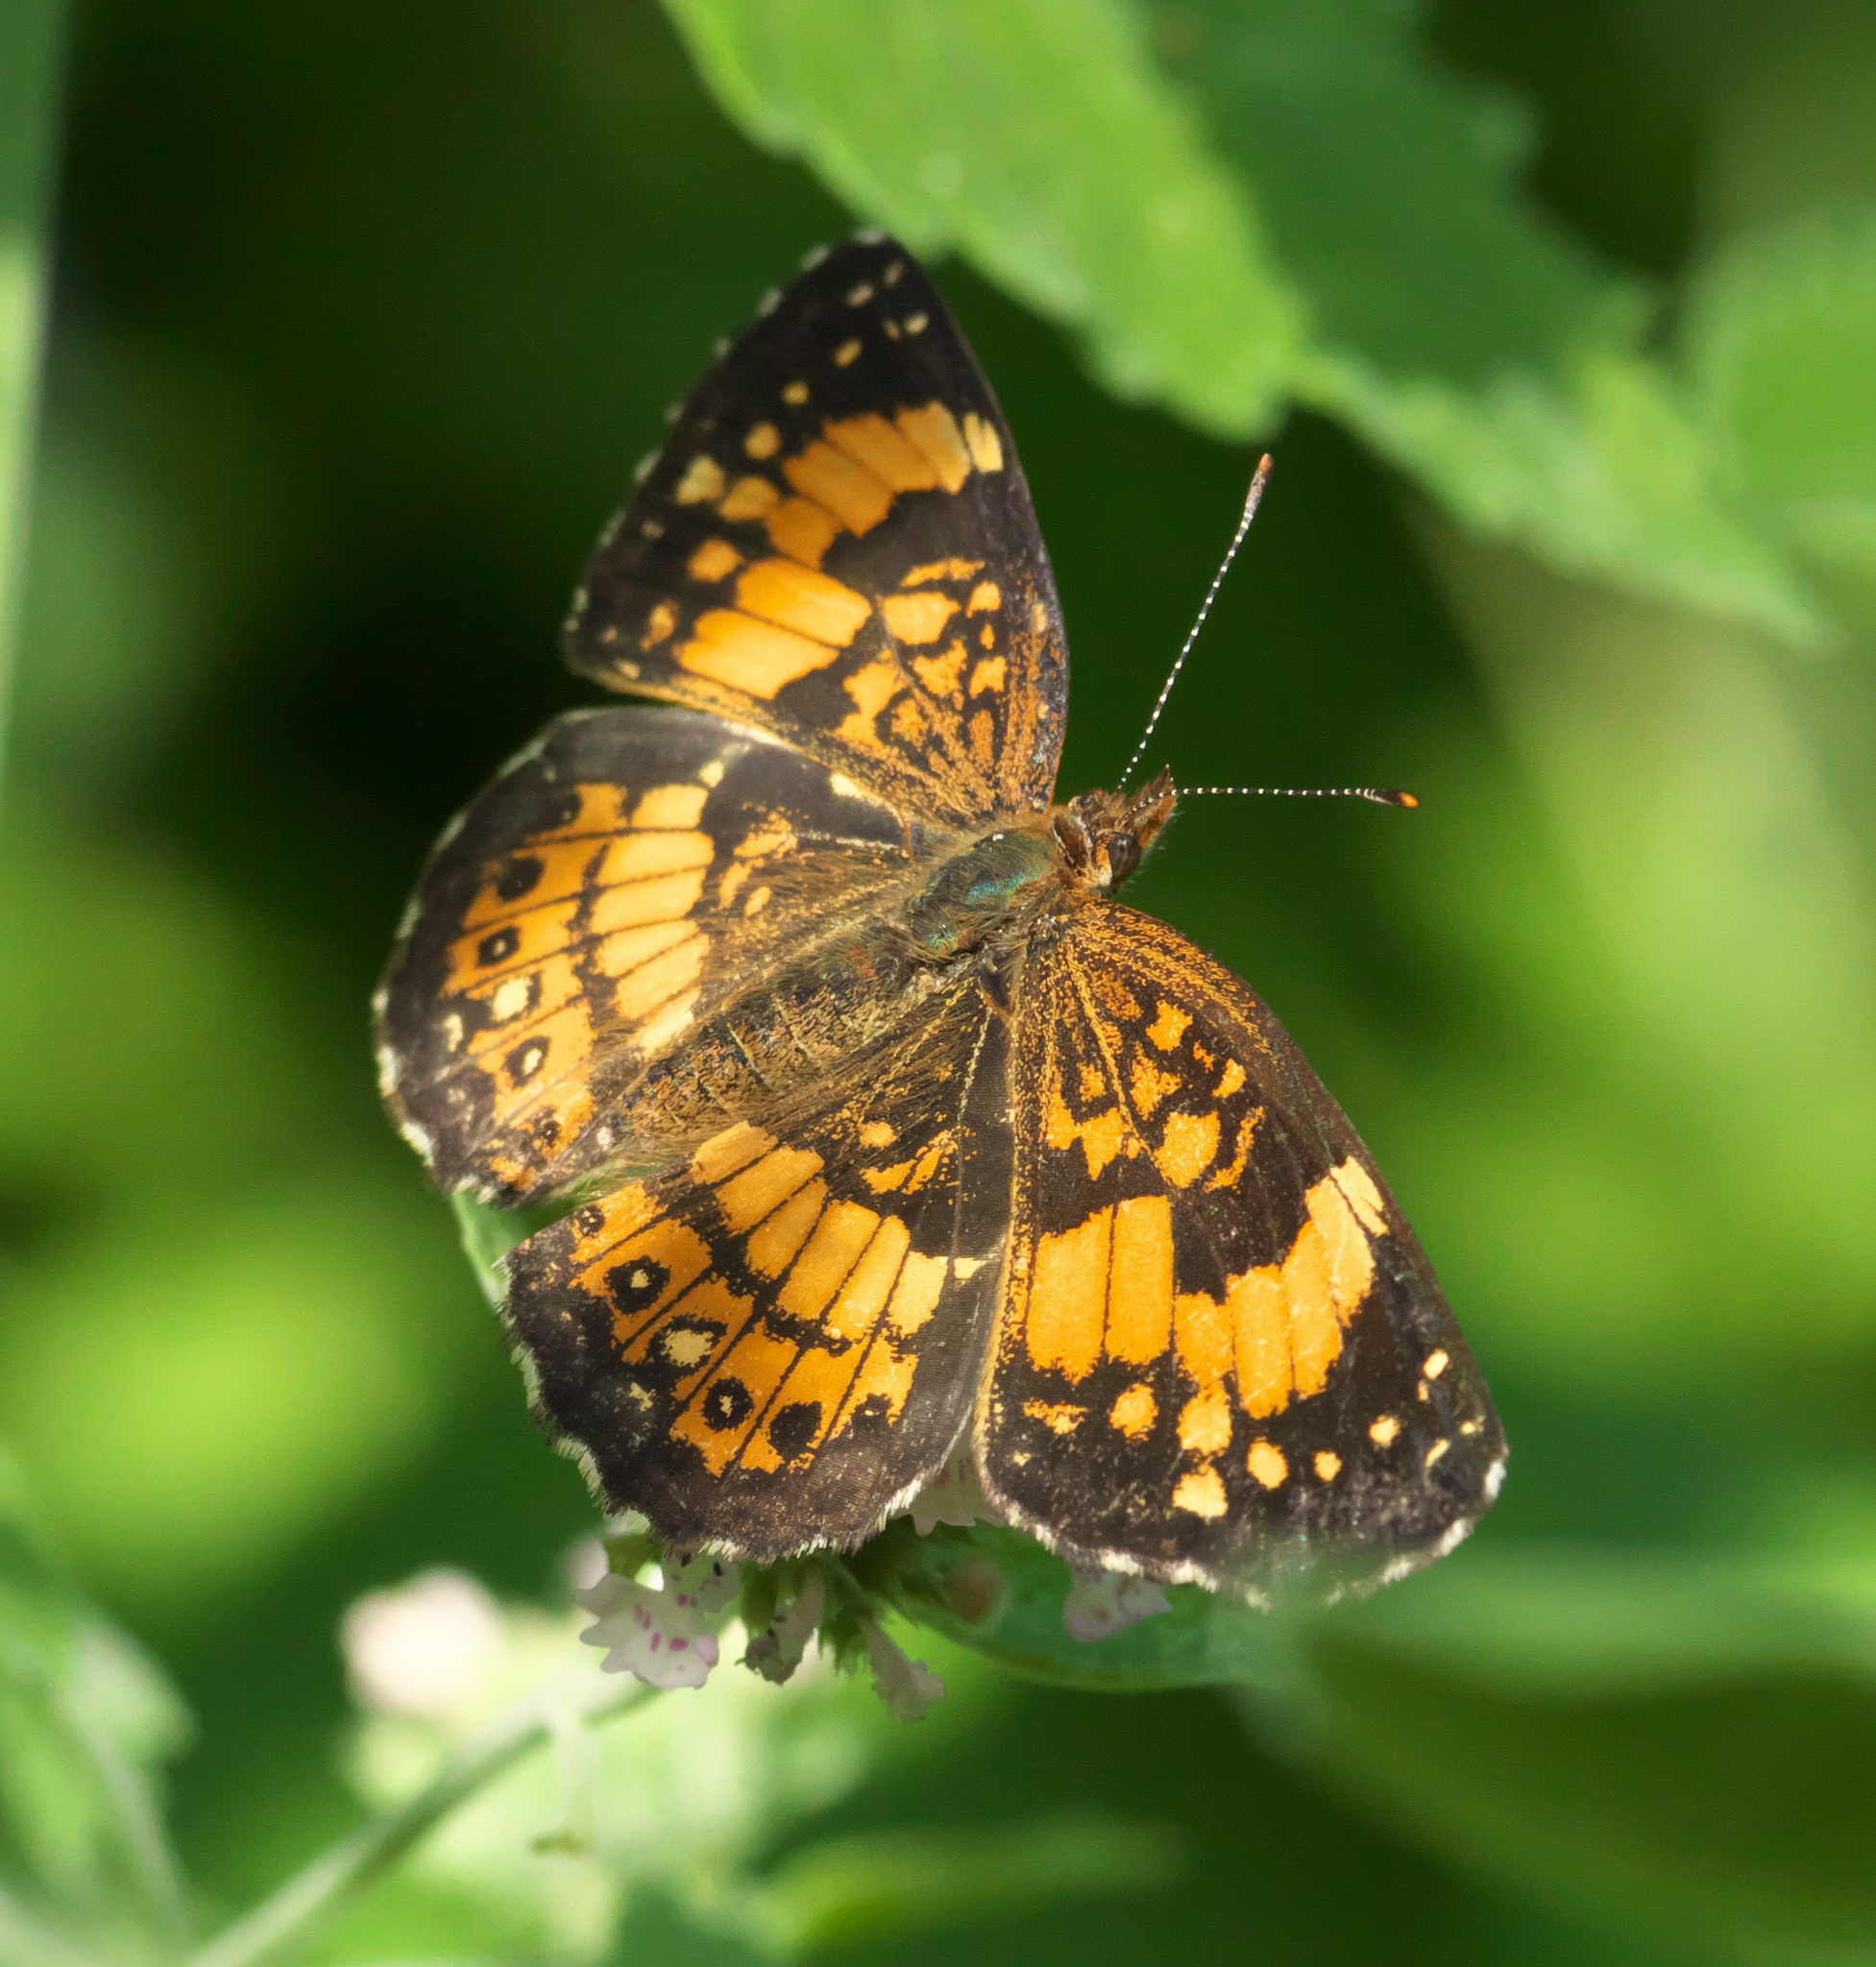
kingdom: Animalia
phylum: Arthropoda
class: Insecta
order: Lepidoptera
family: Nymphalidae
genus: Chlosyne
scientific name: Chlosyne nycteis
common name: Silvery checkerspot
